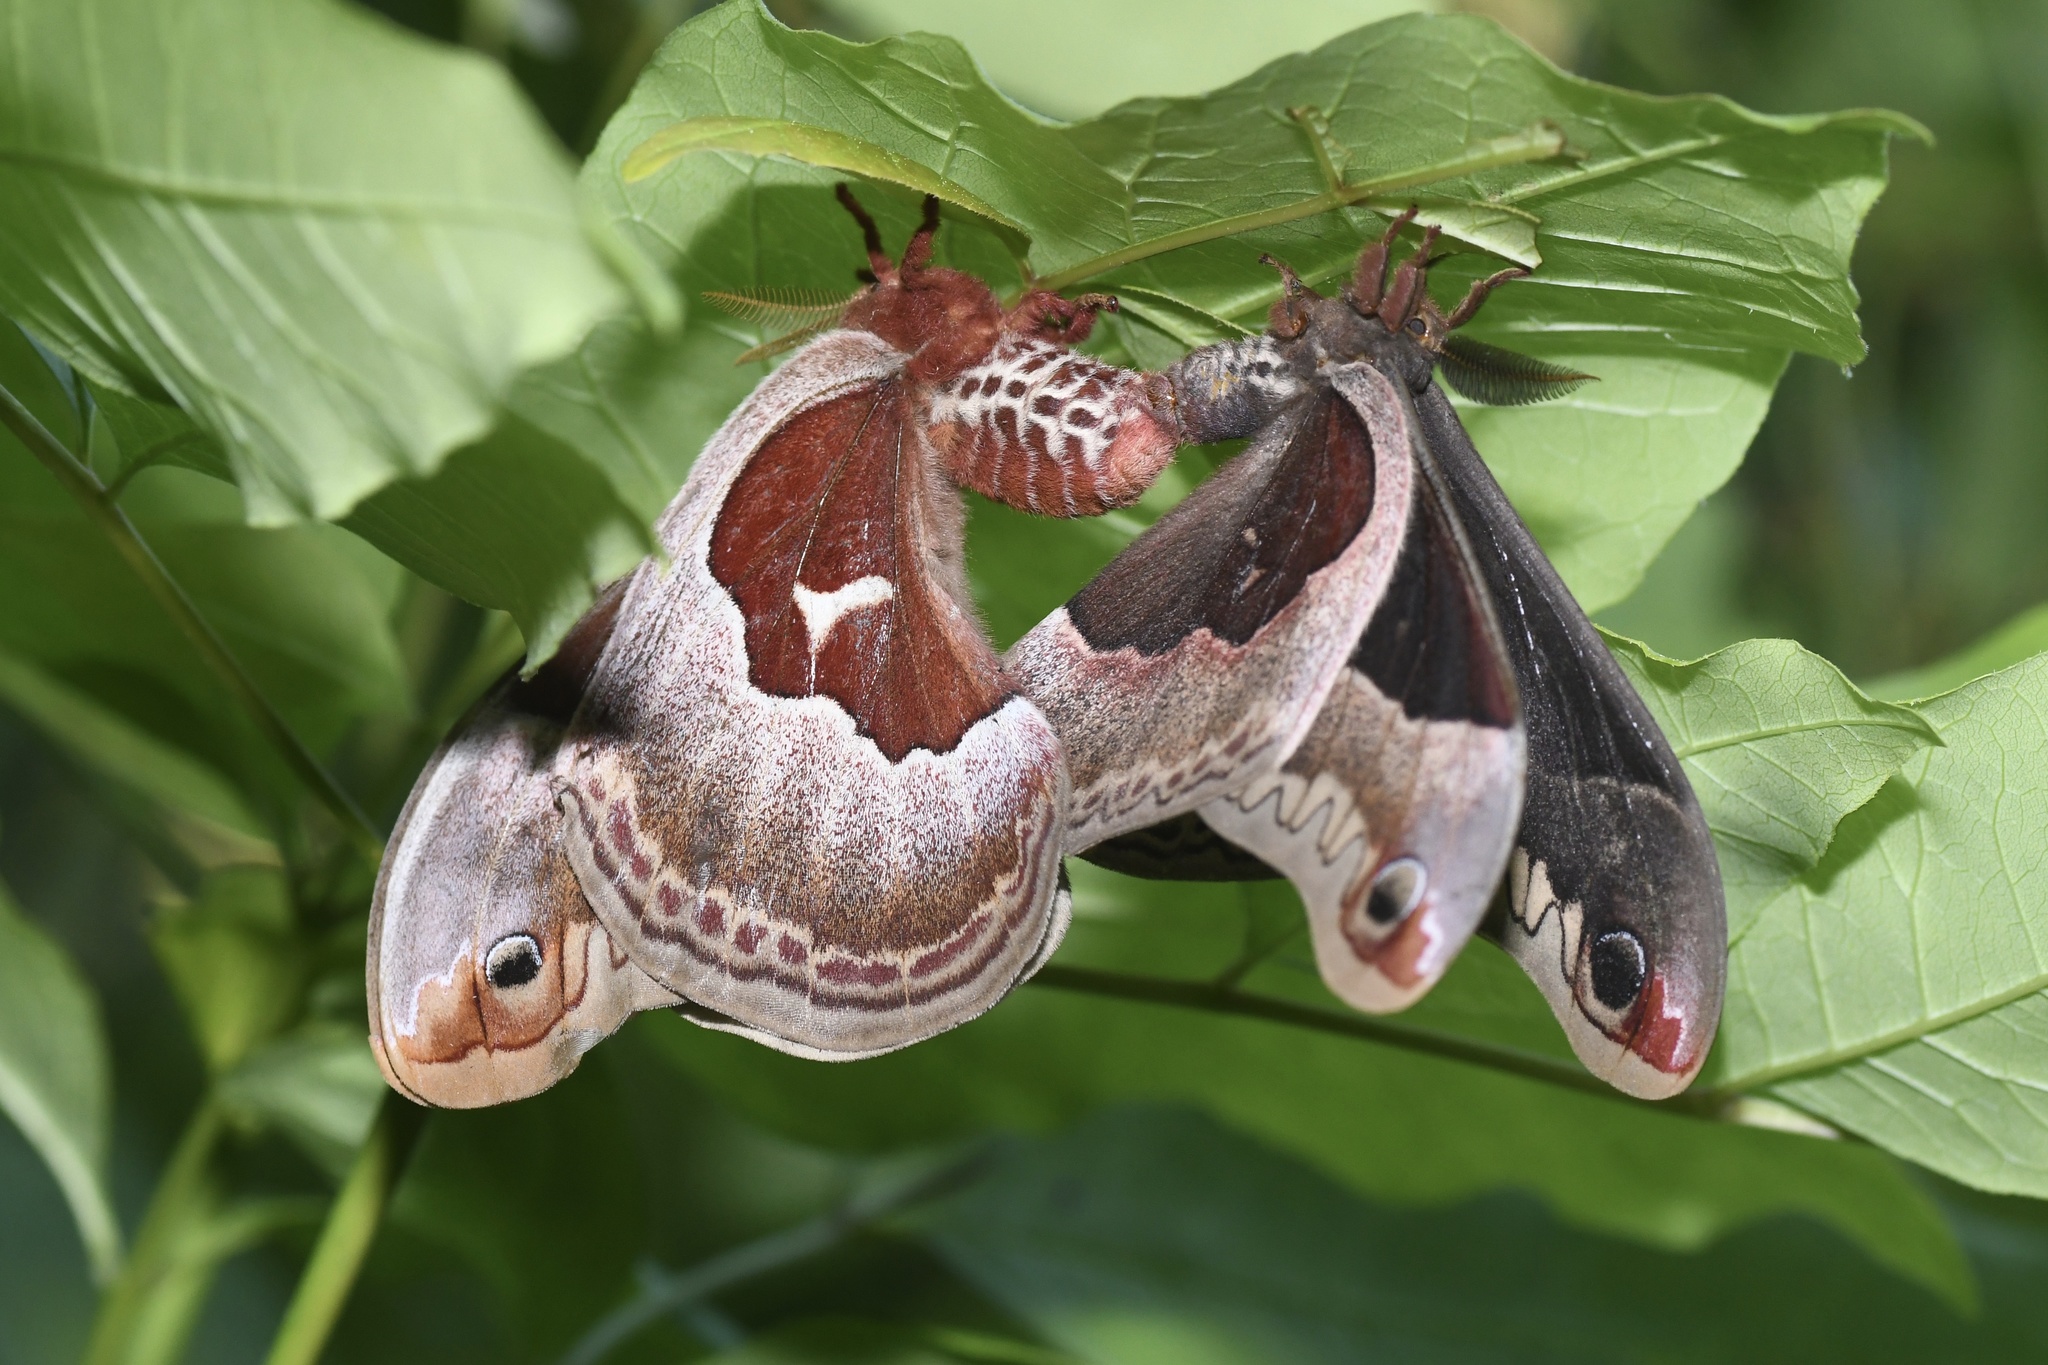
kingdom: Animalia
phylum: Arthropoda
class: Insecta
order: Lepidoptera
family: Saturniidae
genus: Callosamia
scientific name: Callosamia promethea
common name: Promethea silkmoth
